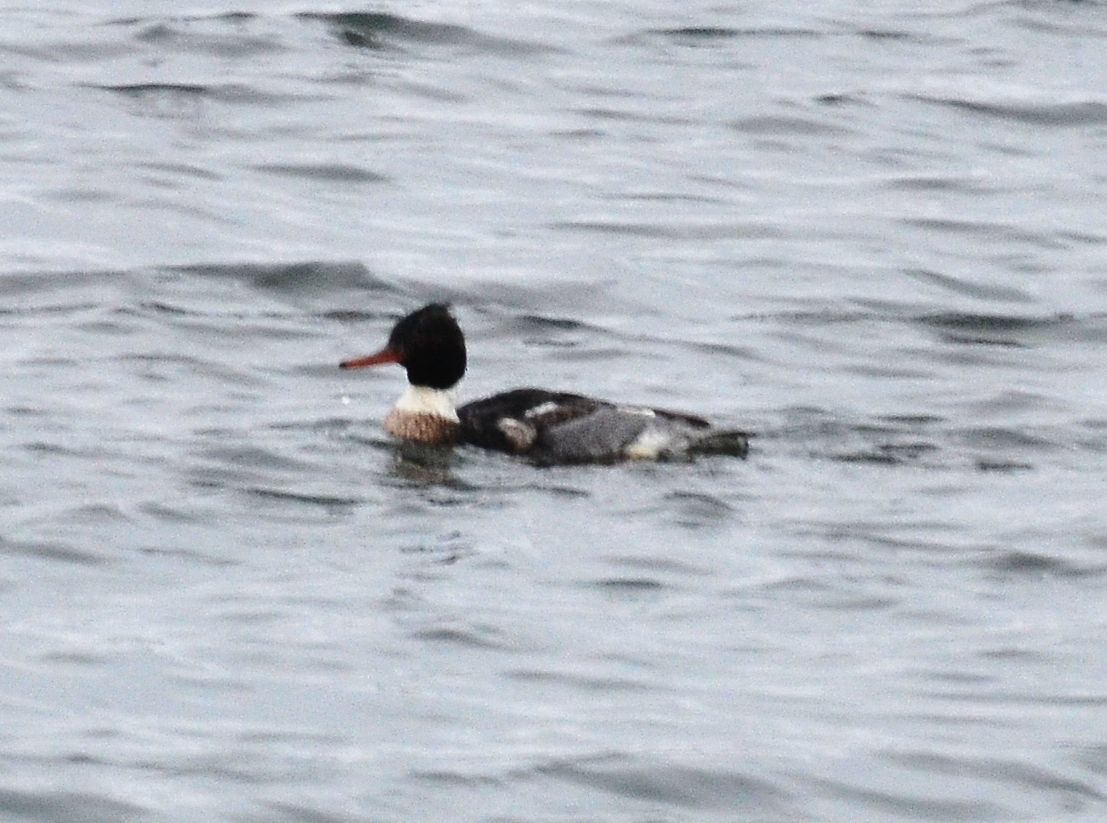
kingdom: Animalia
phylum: Chordata
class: Aves
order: Anseriformes
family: Anatidae
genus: Mergus
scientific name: Mergus serrator
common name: Red-breasted merganser
